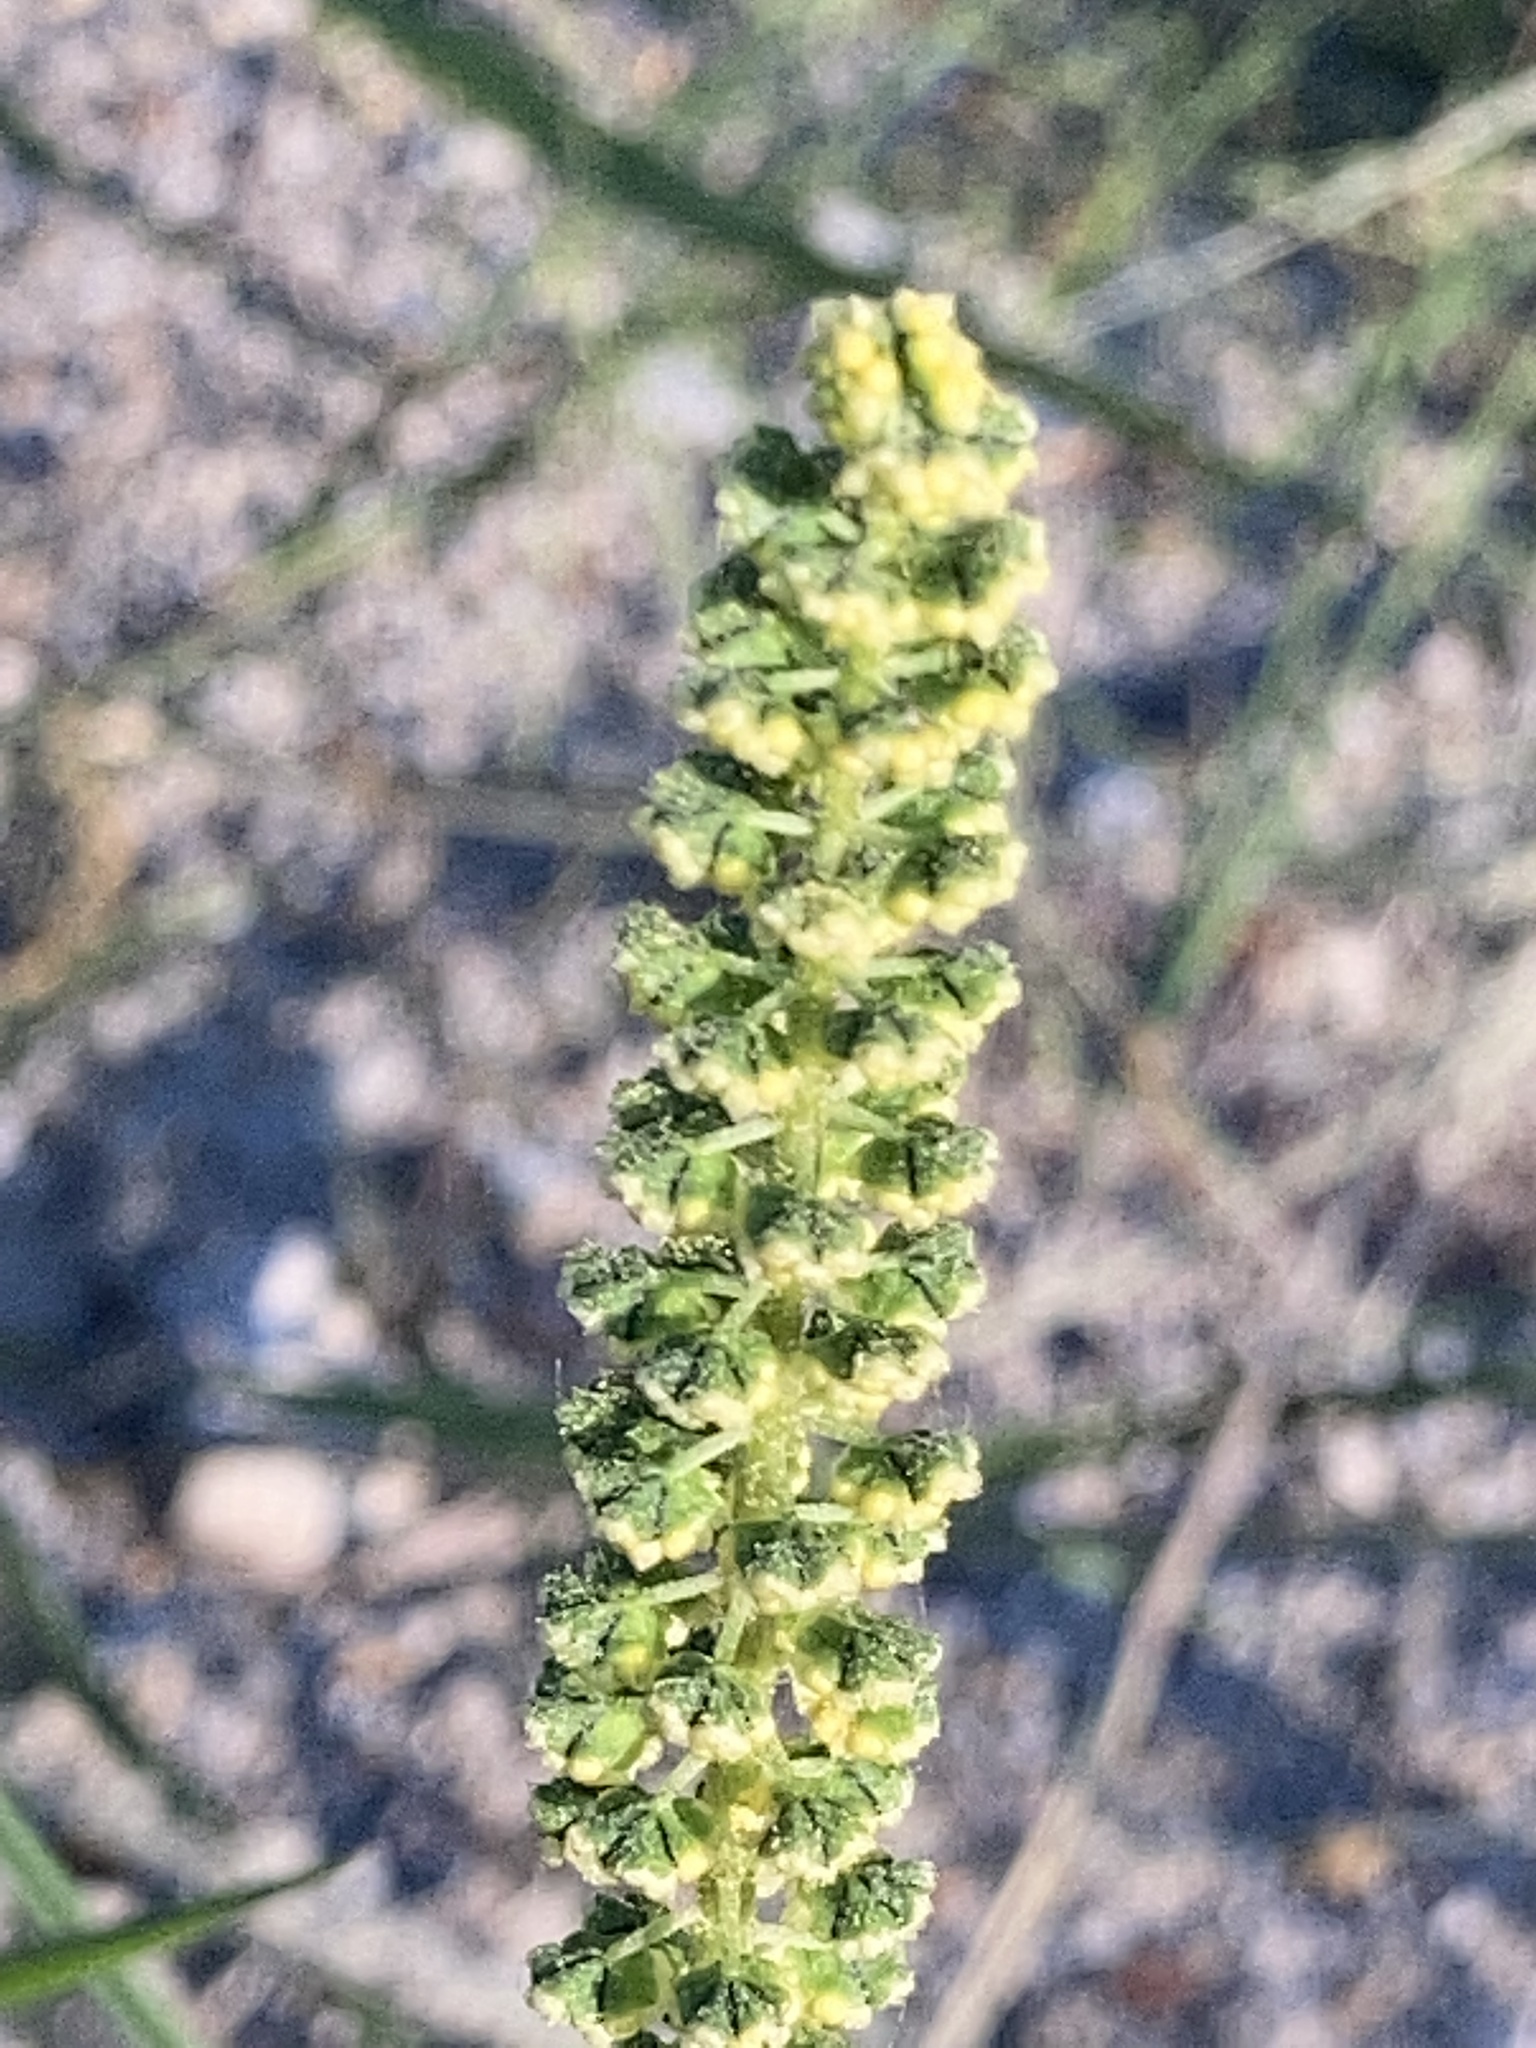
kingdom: Plantae
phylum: Tracheophyta
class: Magnoliopsida
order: Asterales
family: Asteraceae
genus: Ambrosia
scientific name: Ambrosia trifida
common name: Giant ragweed
